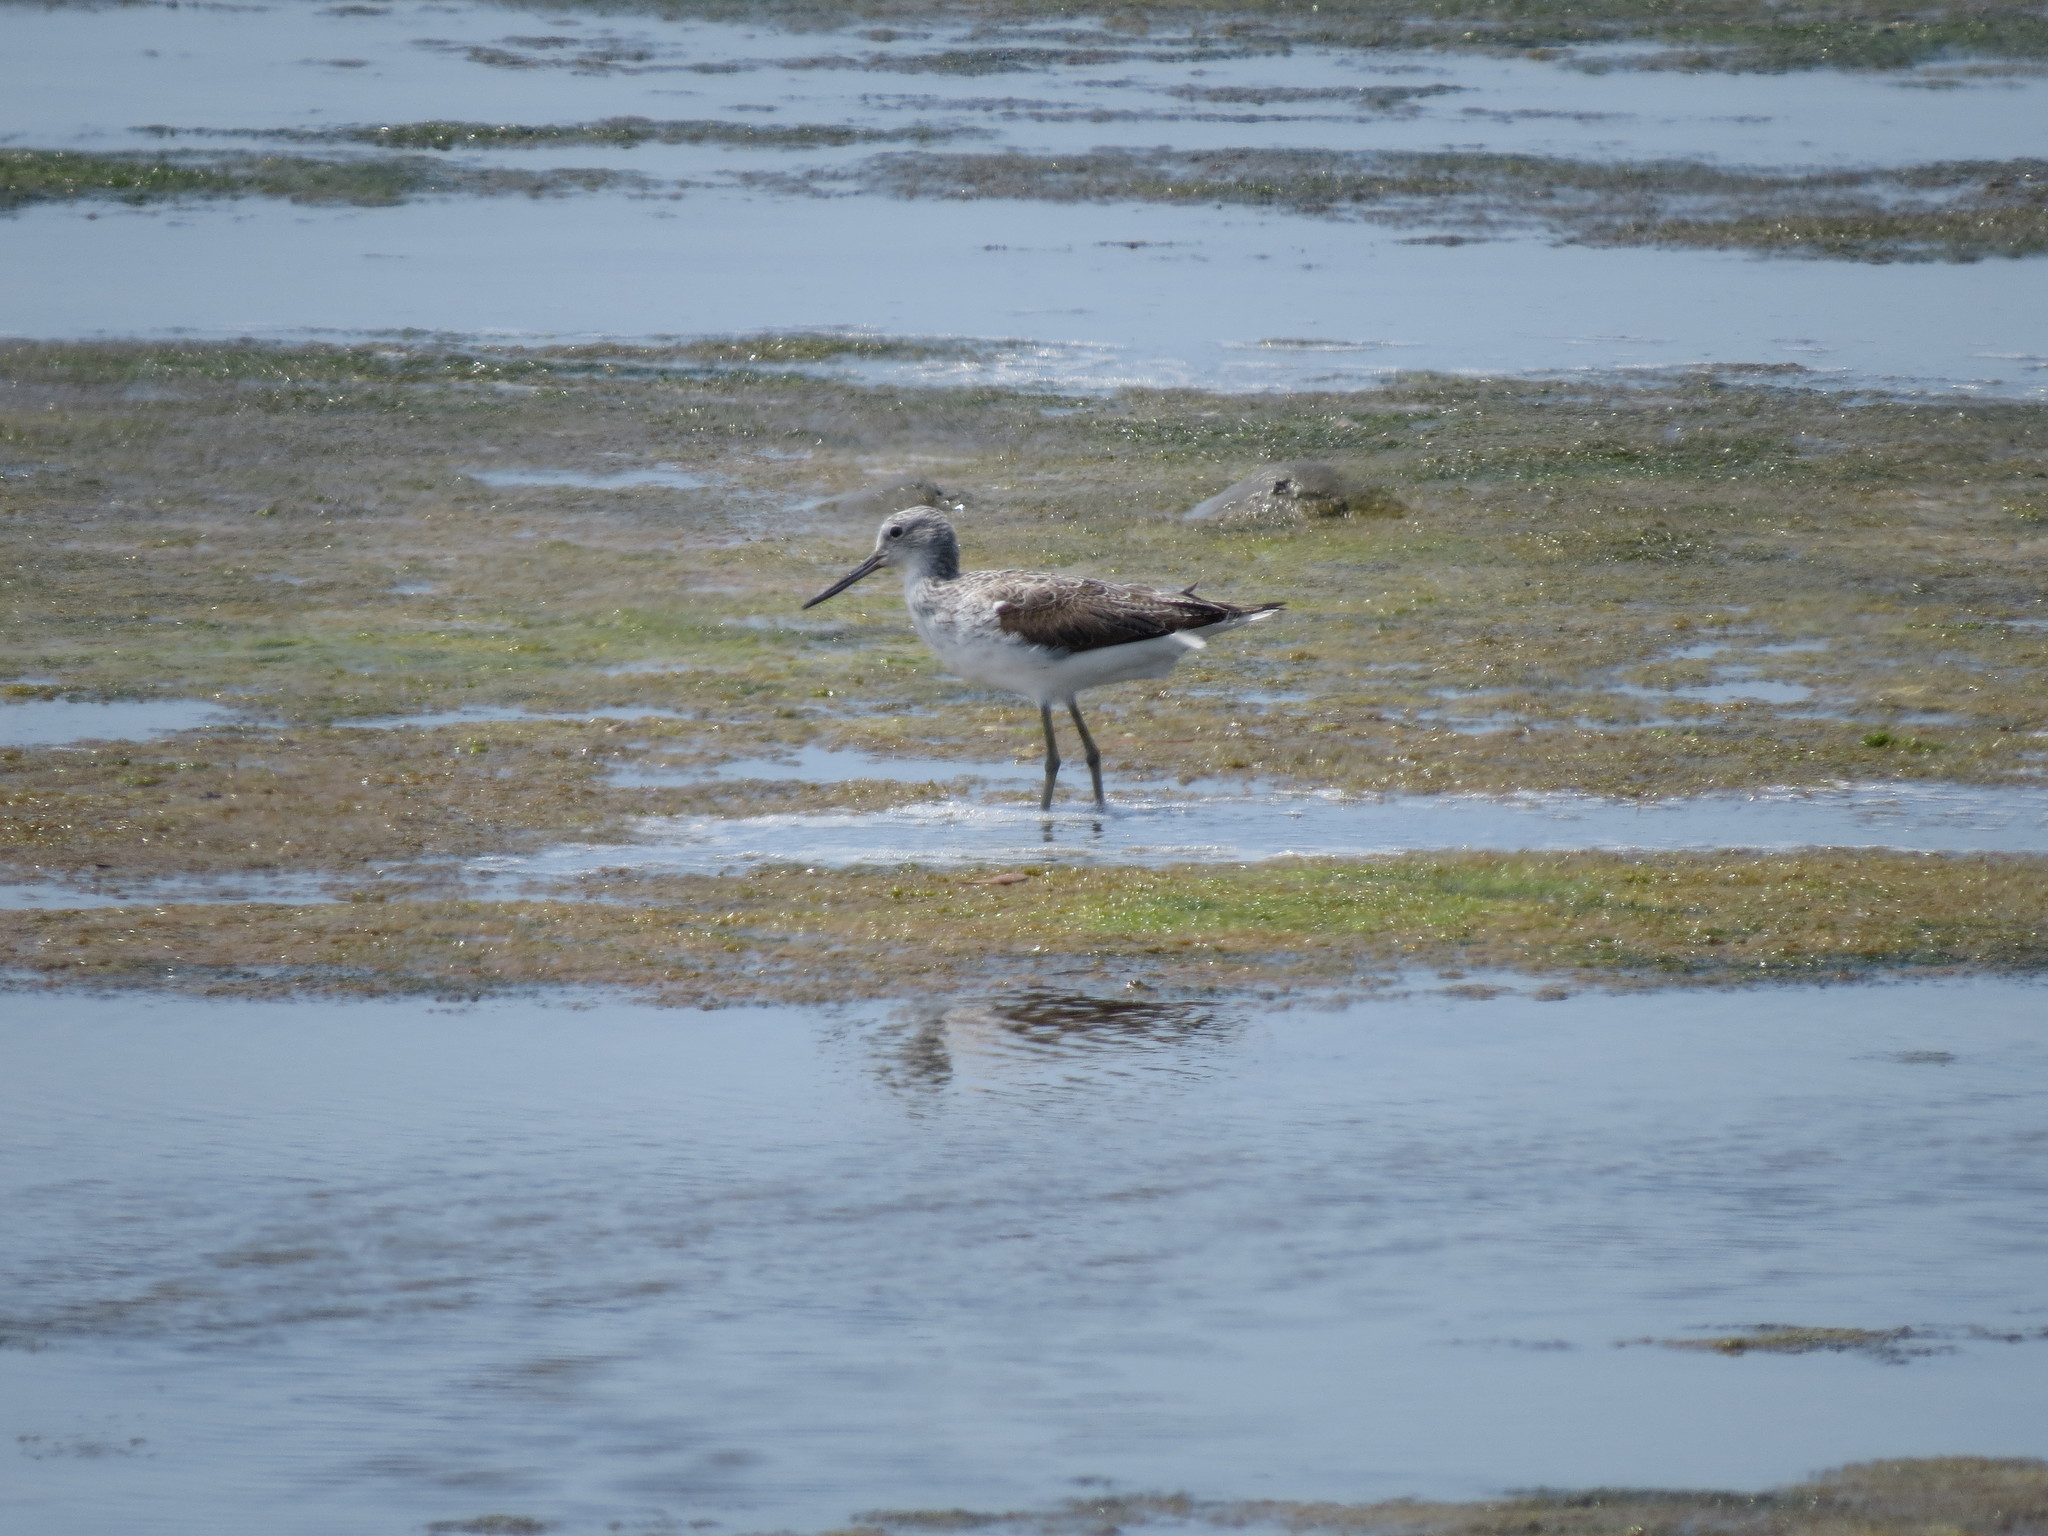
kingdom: Animalia
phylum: Chordata
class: Aves
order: Charadriiformes
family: Scolopacidae
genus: Tringa
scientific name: Tringa nebularia
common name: Common greenshank
